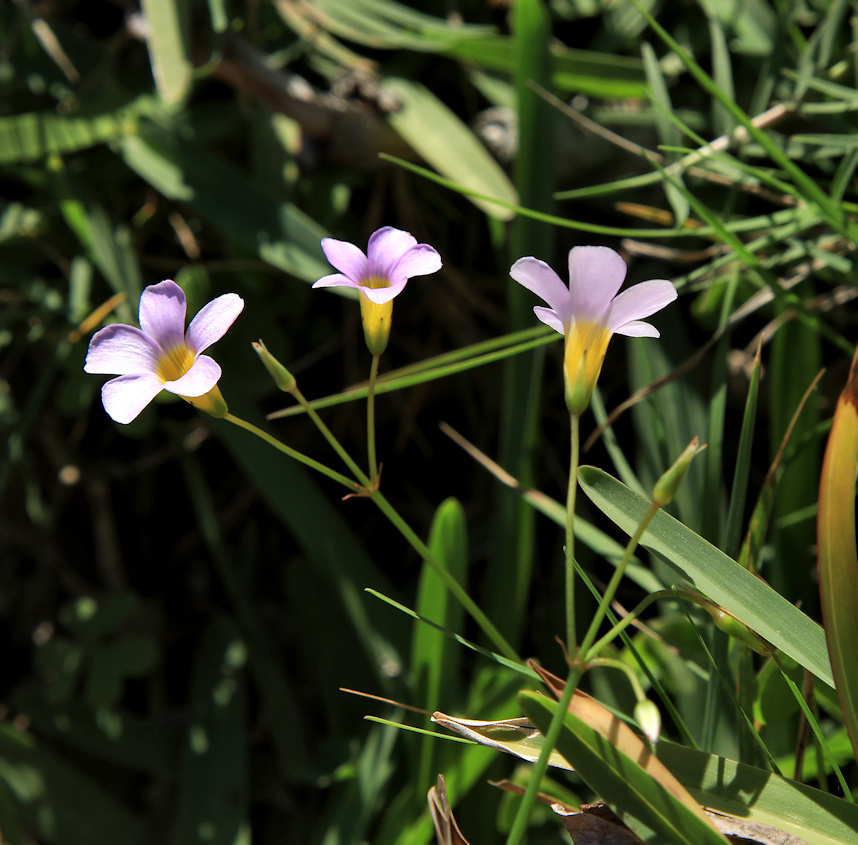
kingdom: Plantae
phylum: Tracheophyta
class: Magnoliopsida
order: Oxalidales
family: Oxalidaceae
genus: Oxalis
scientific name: Oxalis caprina
